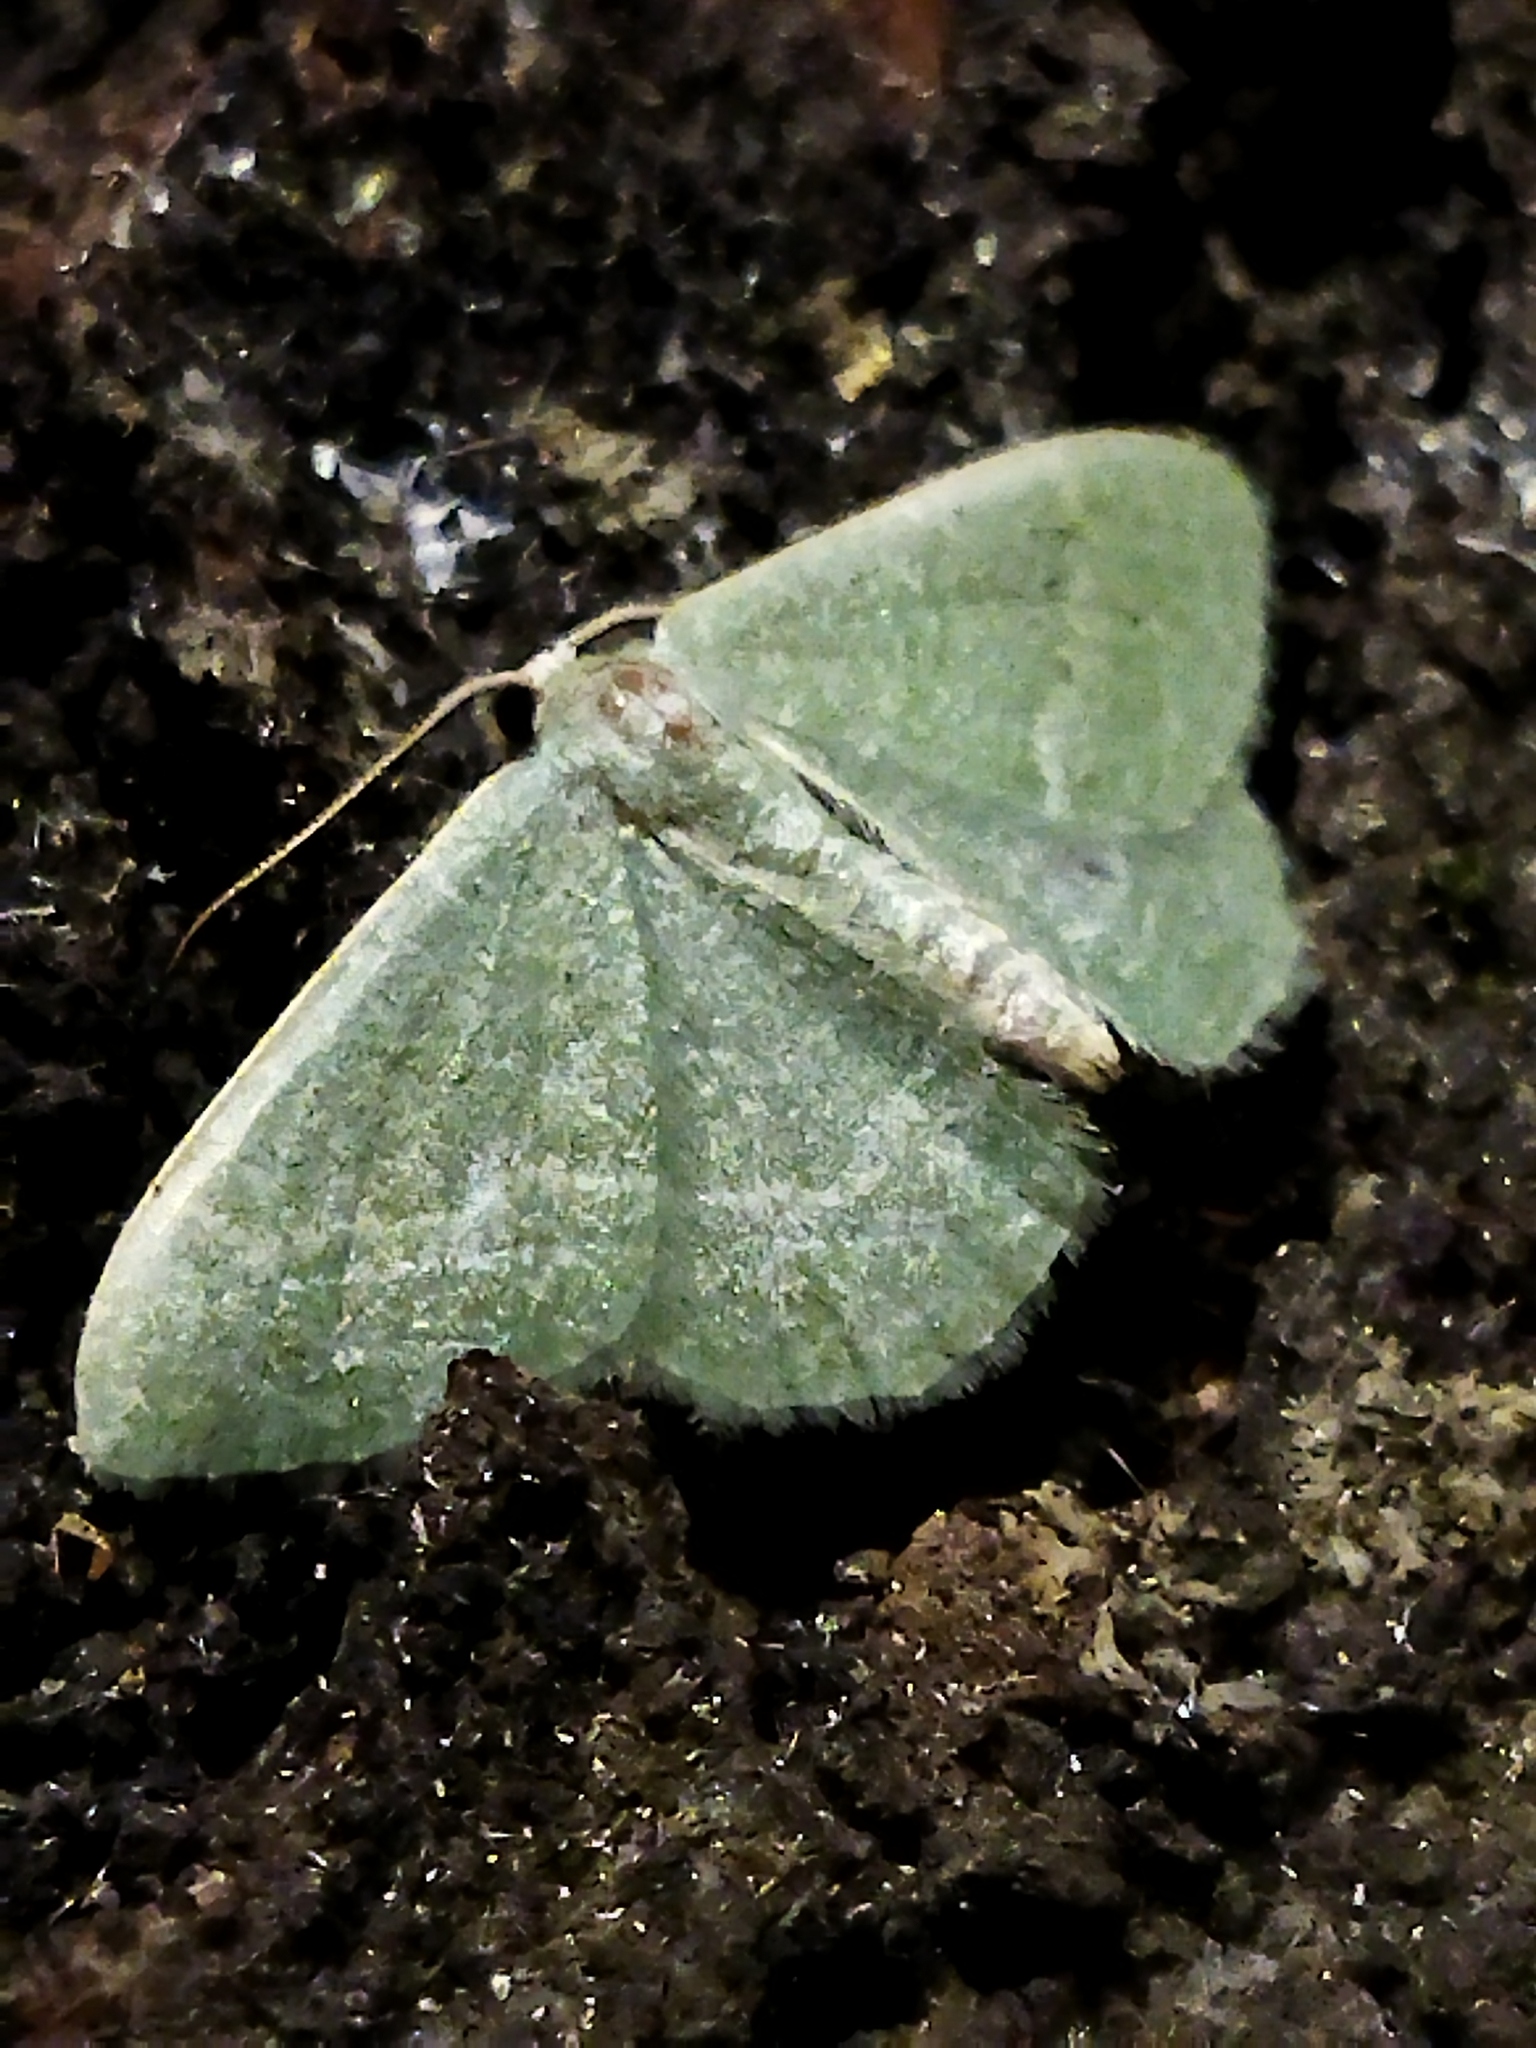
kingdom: Animalia
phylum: Arthropoda
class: Insecta
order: Lepidoptera
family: Geometridae
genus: Chlorissa
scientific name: Chlorissa etruscaria
